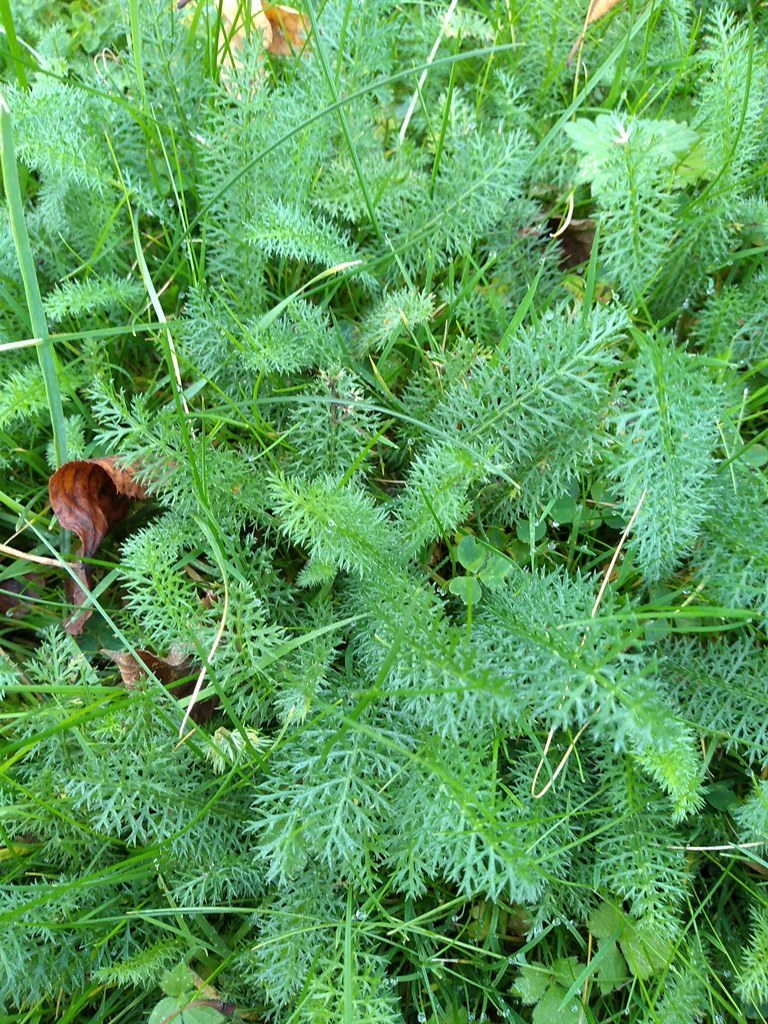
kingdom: Plantae
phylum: Tracheophyta
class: Magnoliopsida
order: Asterales
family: Asteraceae
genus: Achillea
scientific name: Achillea millefolium
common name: Yarrow
